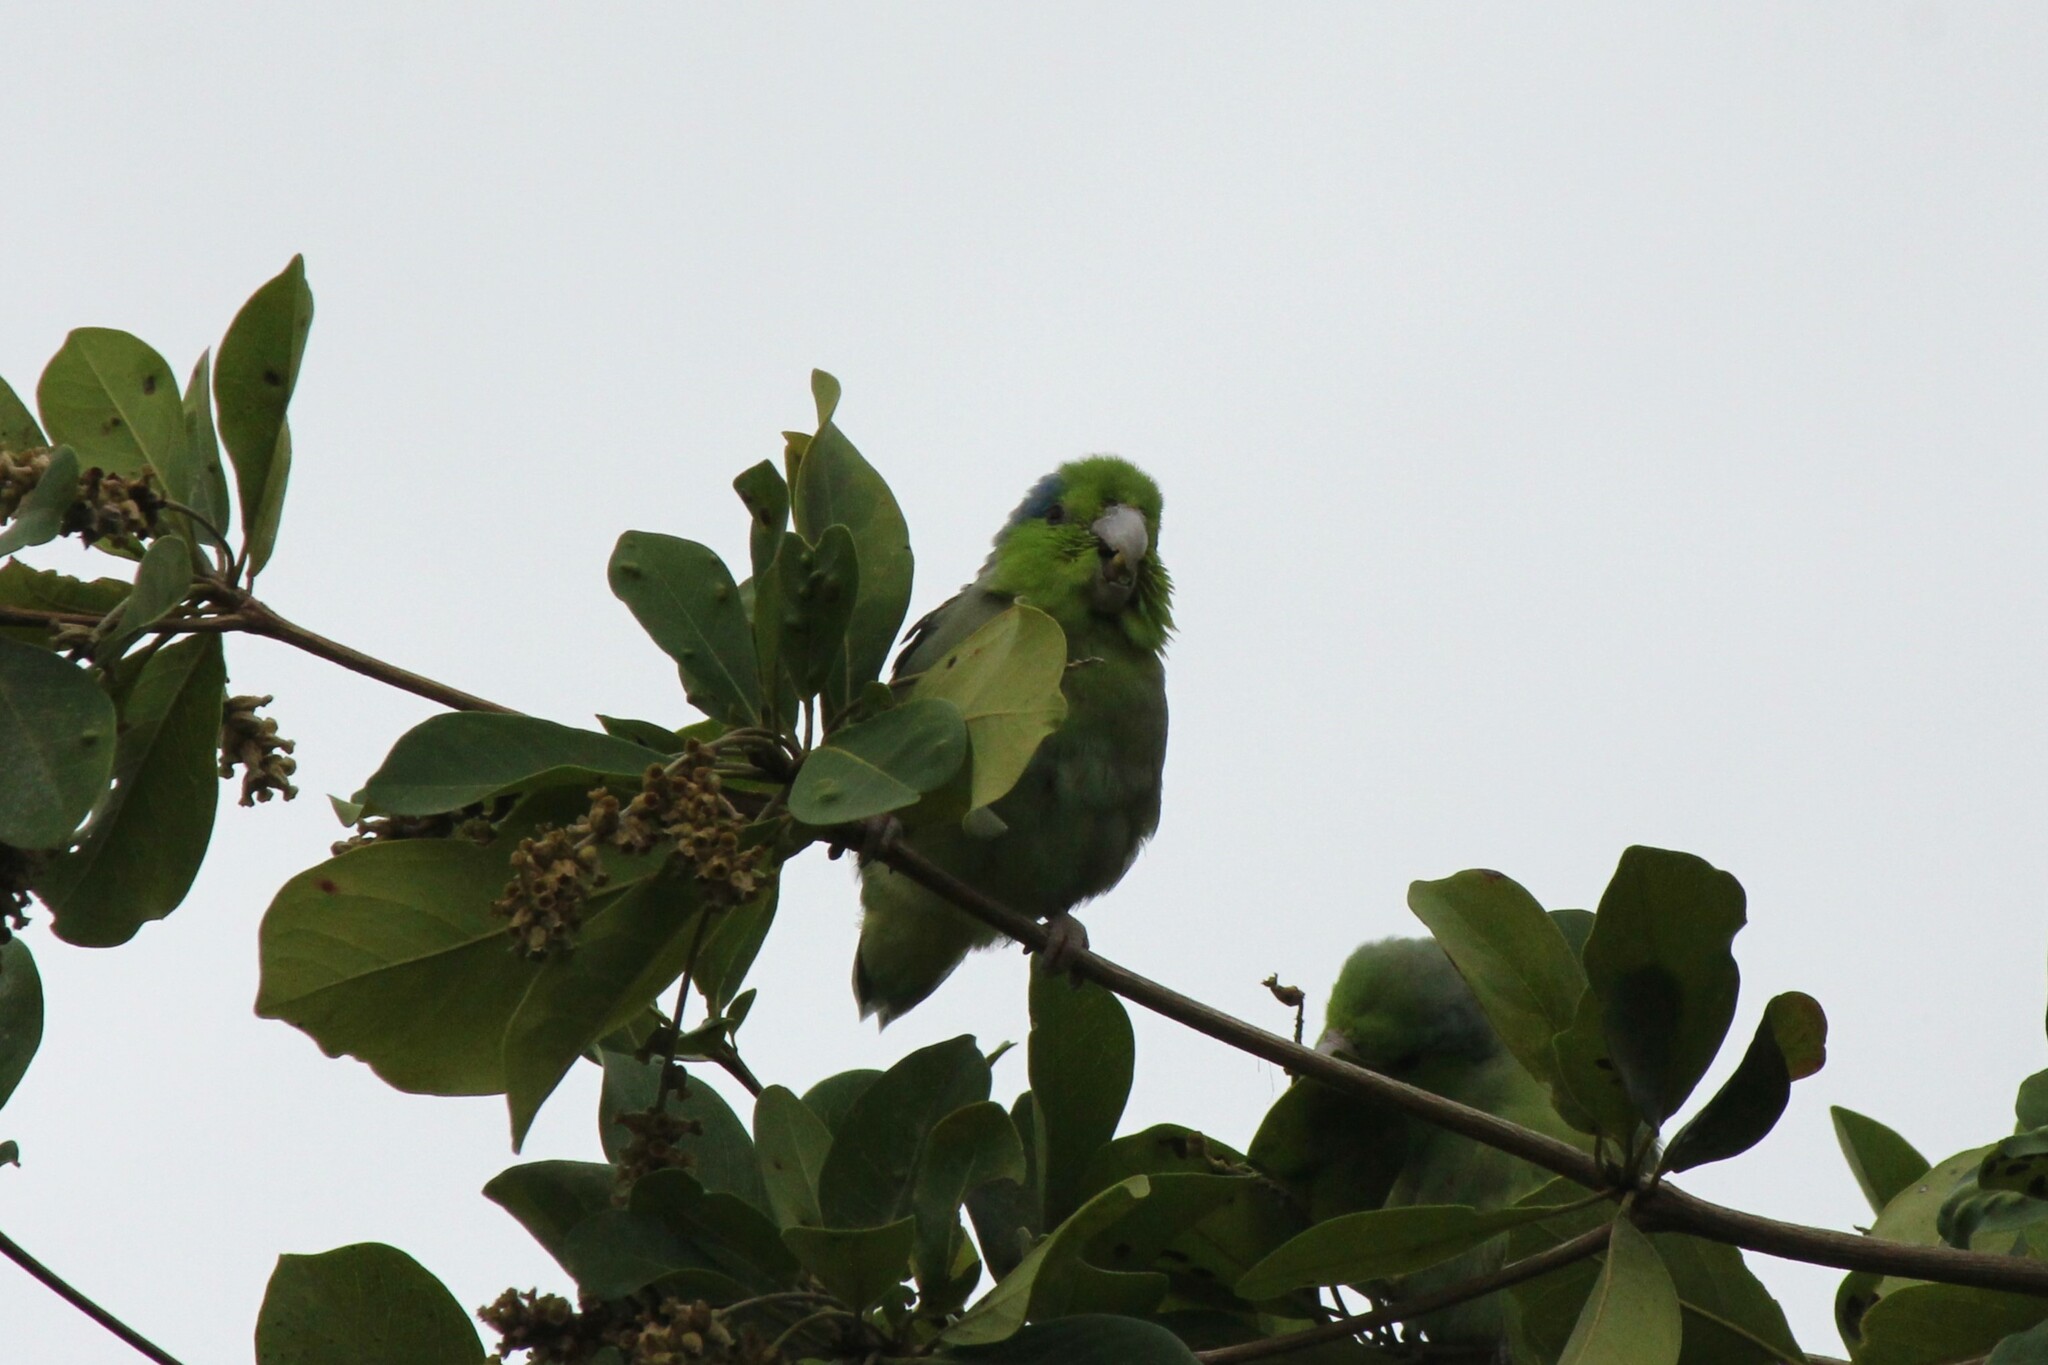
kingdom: Animalia
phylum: Chordata
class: Aves
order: Psittaciformes
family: Psittacidae
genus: Forpus
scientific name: Forpus coelestis
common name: Pacific parrotlet
